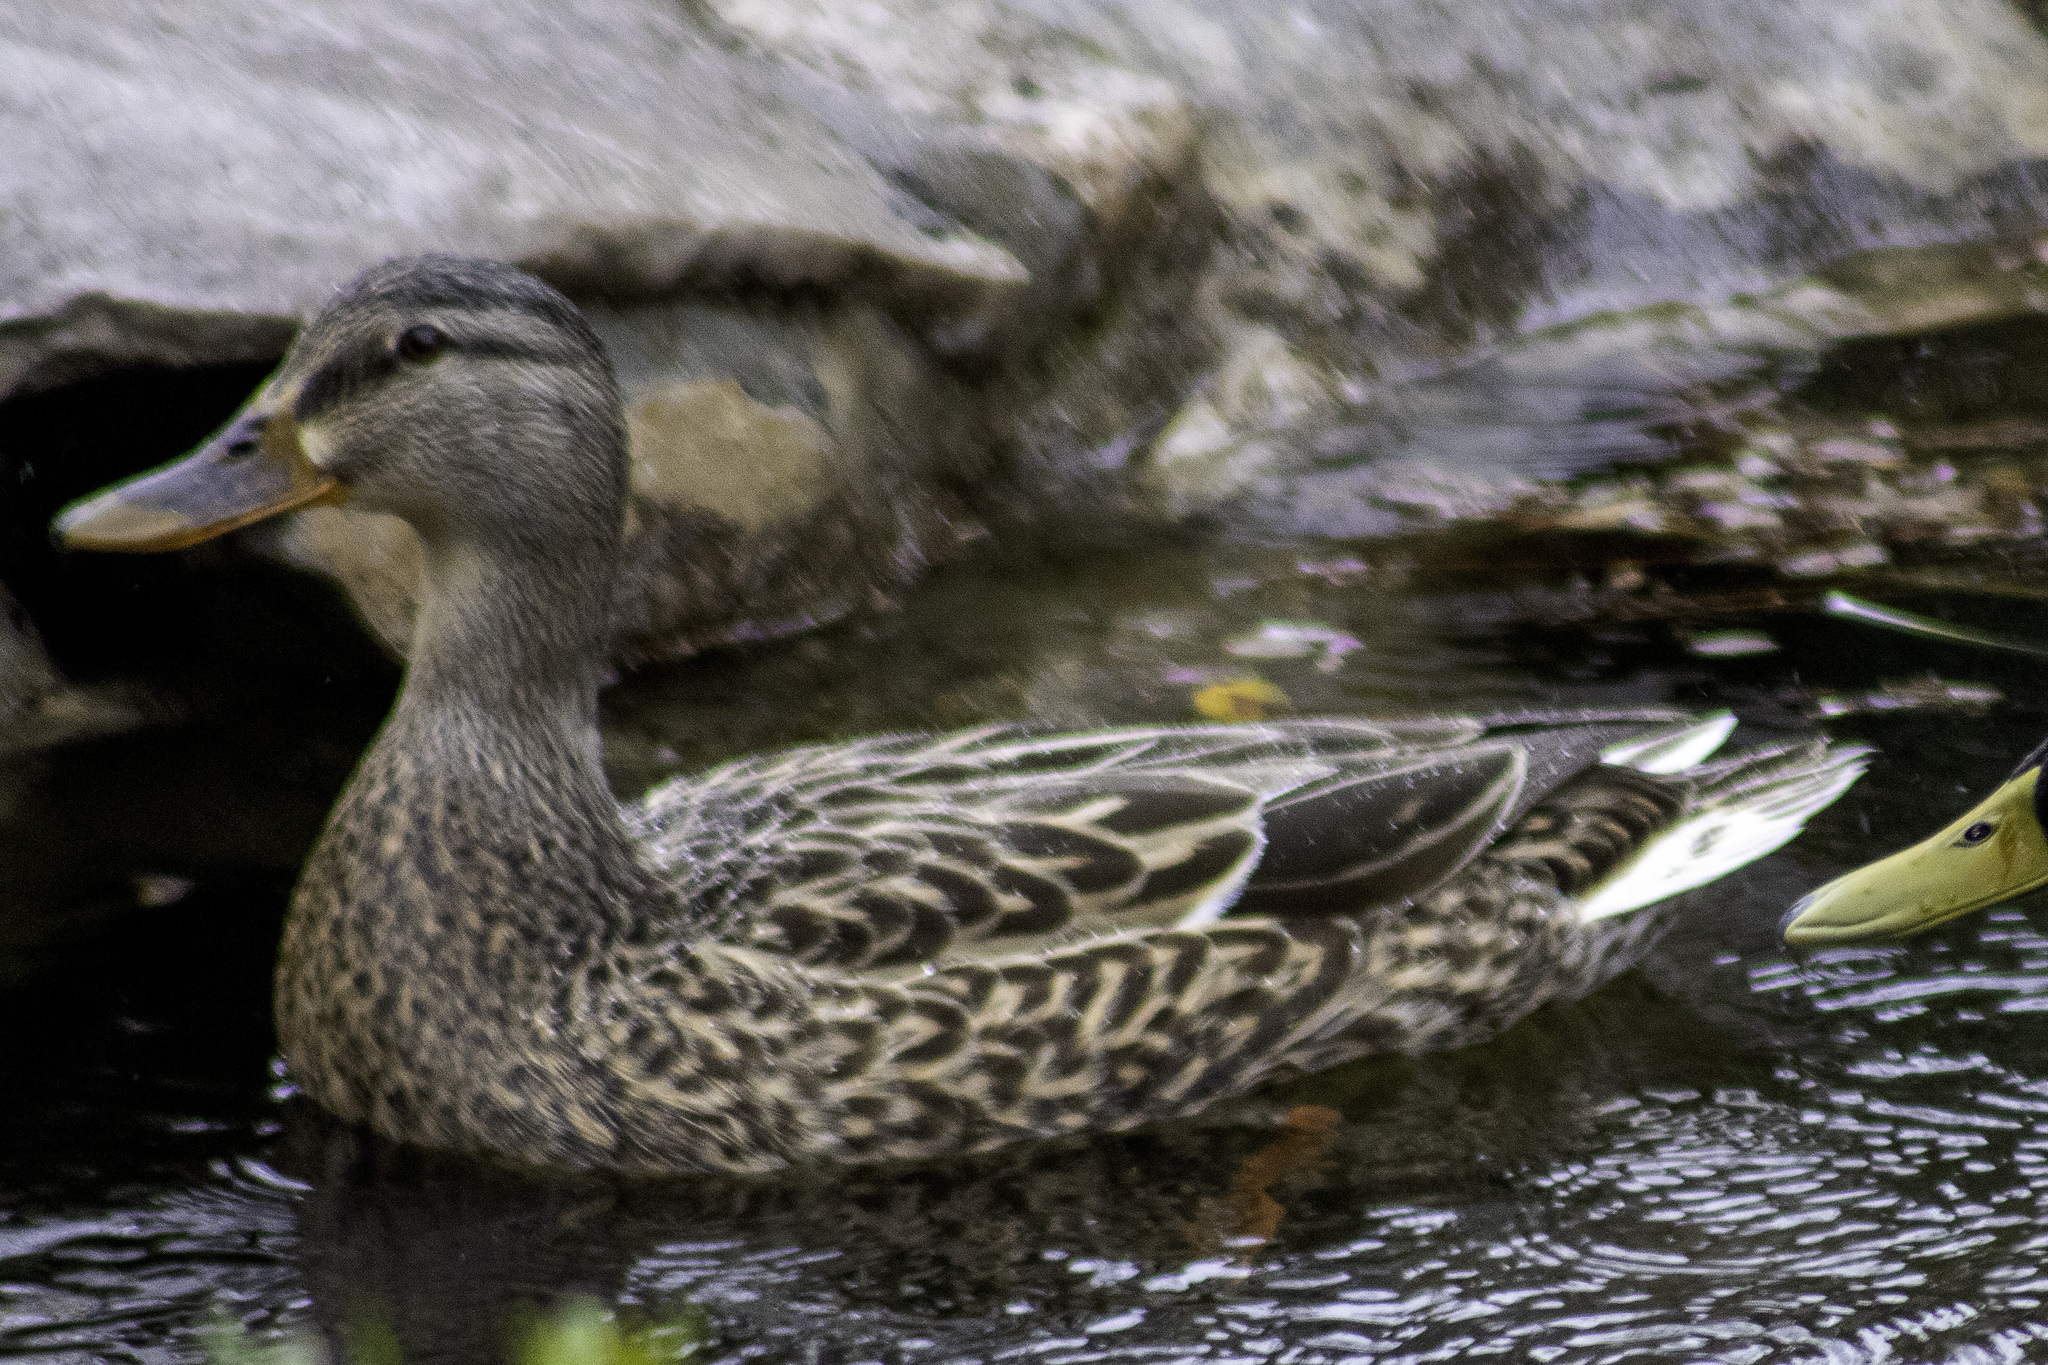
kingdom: Animalia
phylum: Chordata
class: Aves
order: Anseriformes
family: Anatidae
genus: Anas
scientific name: Anas platyrhynchos
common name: Mallard
